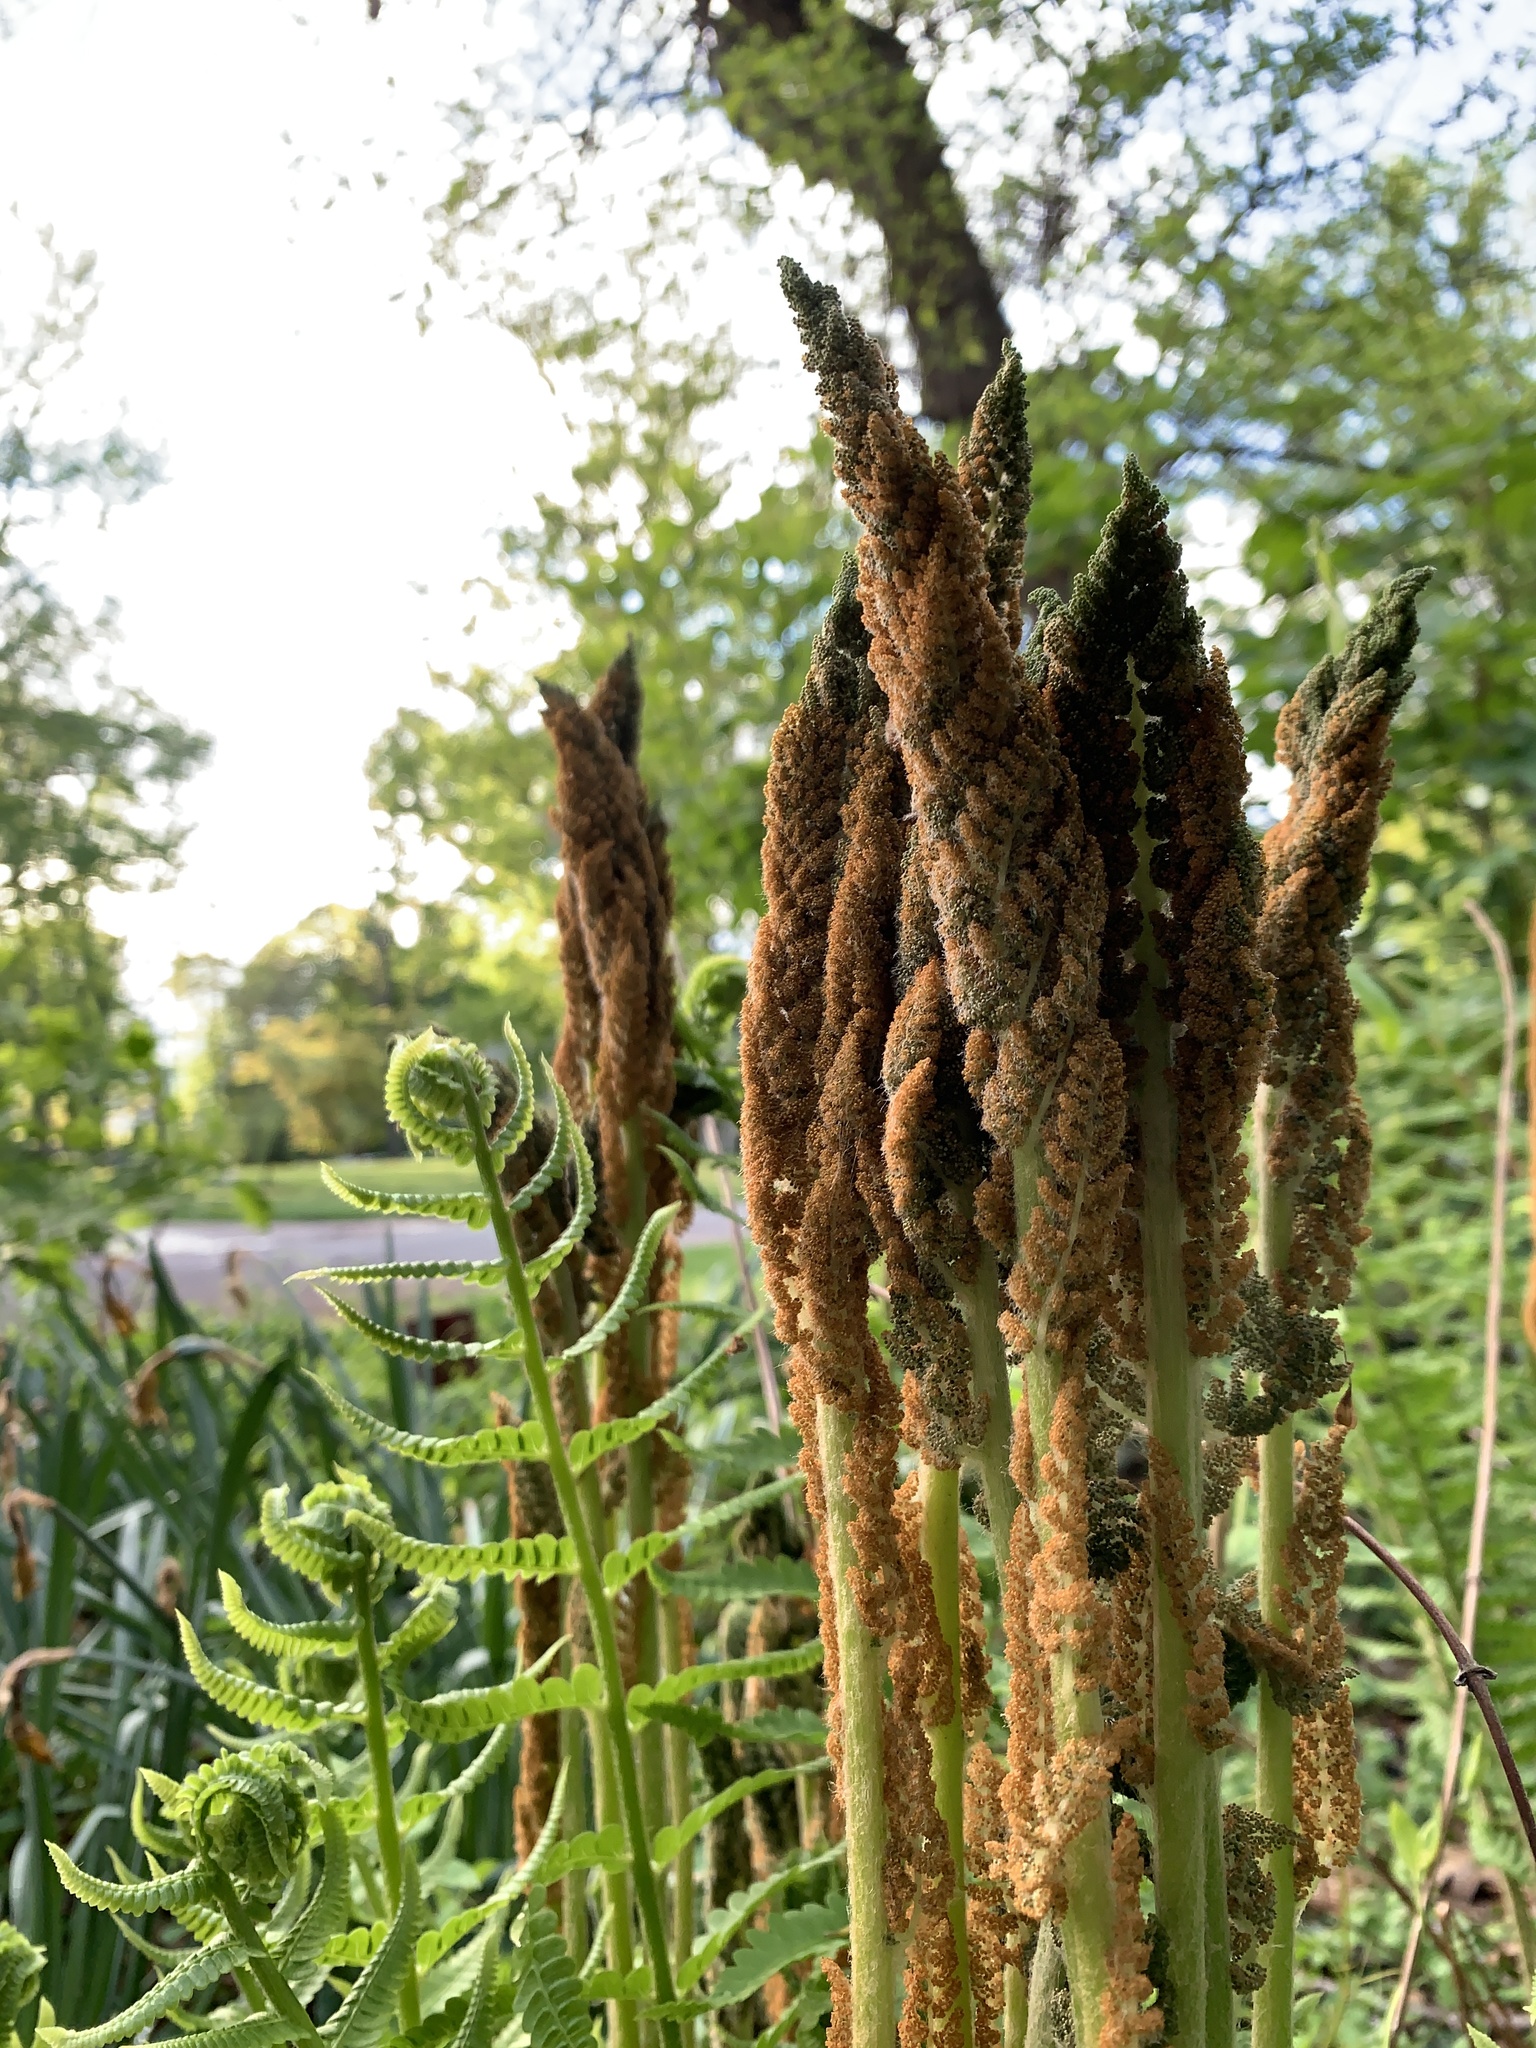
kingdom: Plantae
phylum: Tracheophyta
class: Polypodiopsida
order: Osmundales
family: Osmundaceae
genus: Osmundastrum
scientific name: Osmundastrum cinnamomeum
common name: Cinnamon fern
